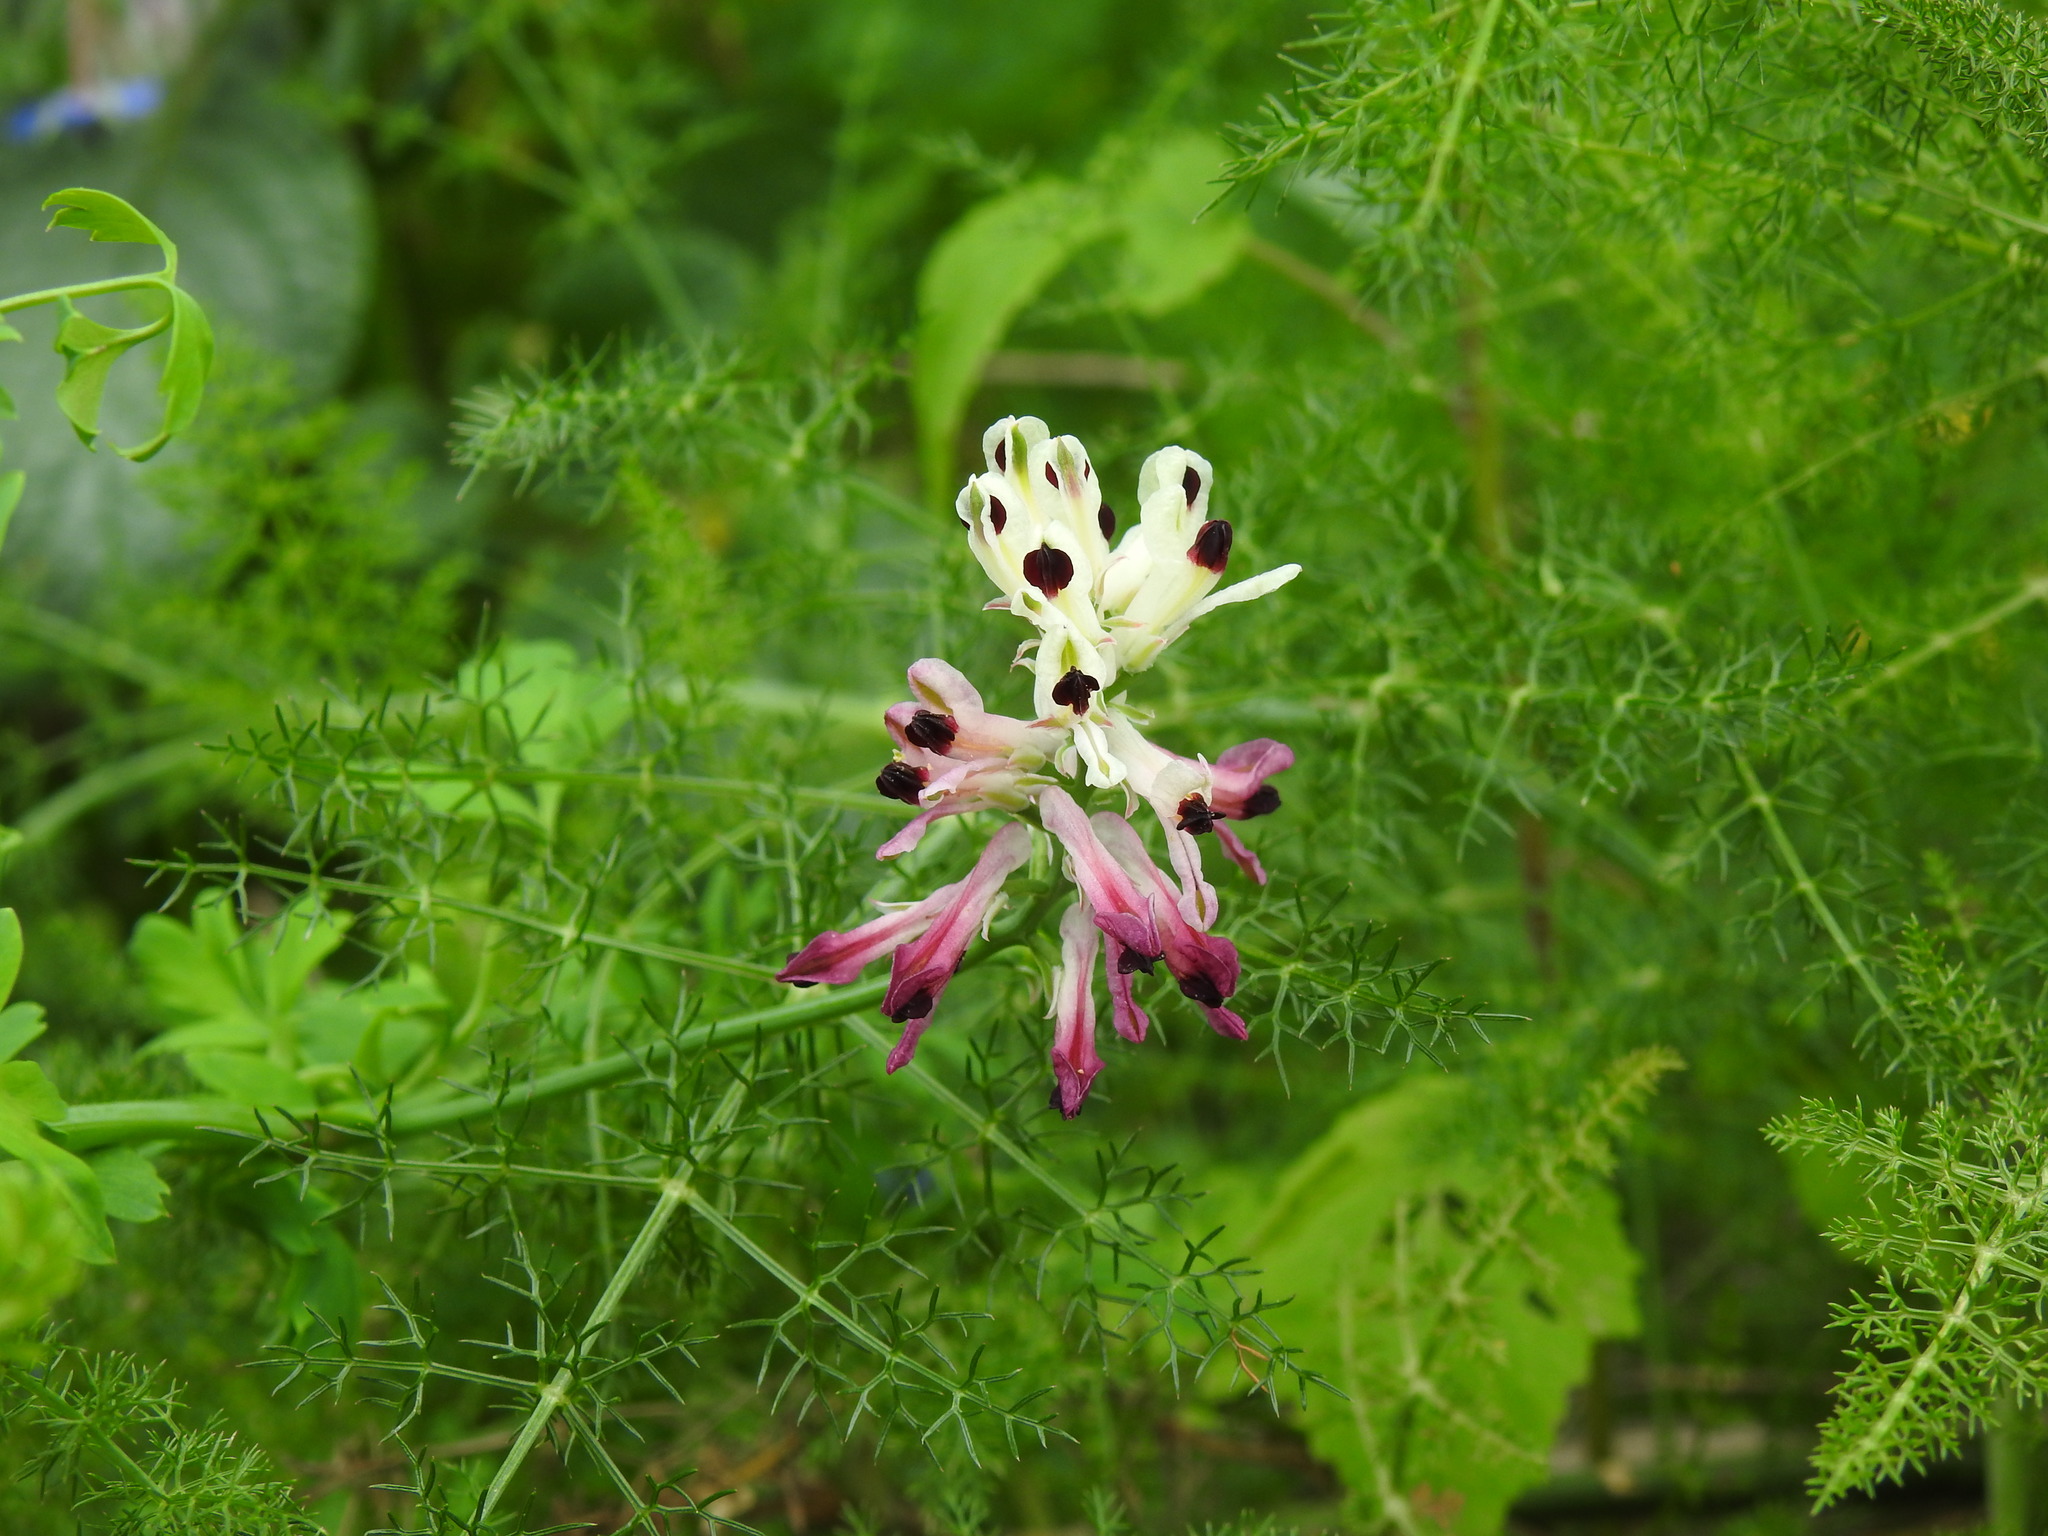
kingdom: Plantae
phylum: Tracheophyta
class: Magnoliopsida
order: Ranunculales
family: Papaveraceae
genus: Fumaria
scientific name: Fumaria agraria
